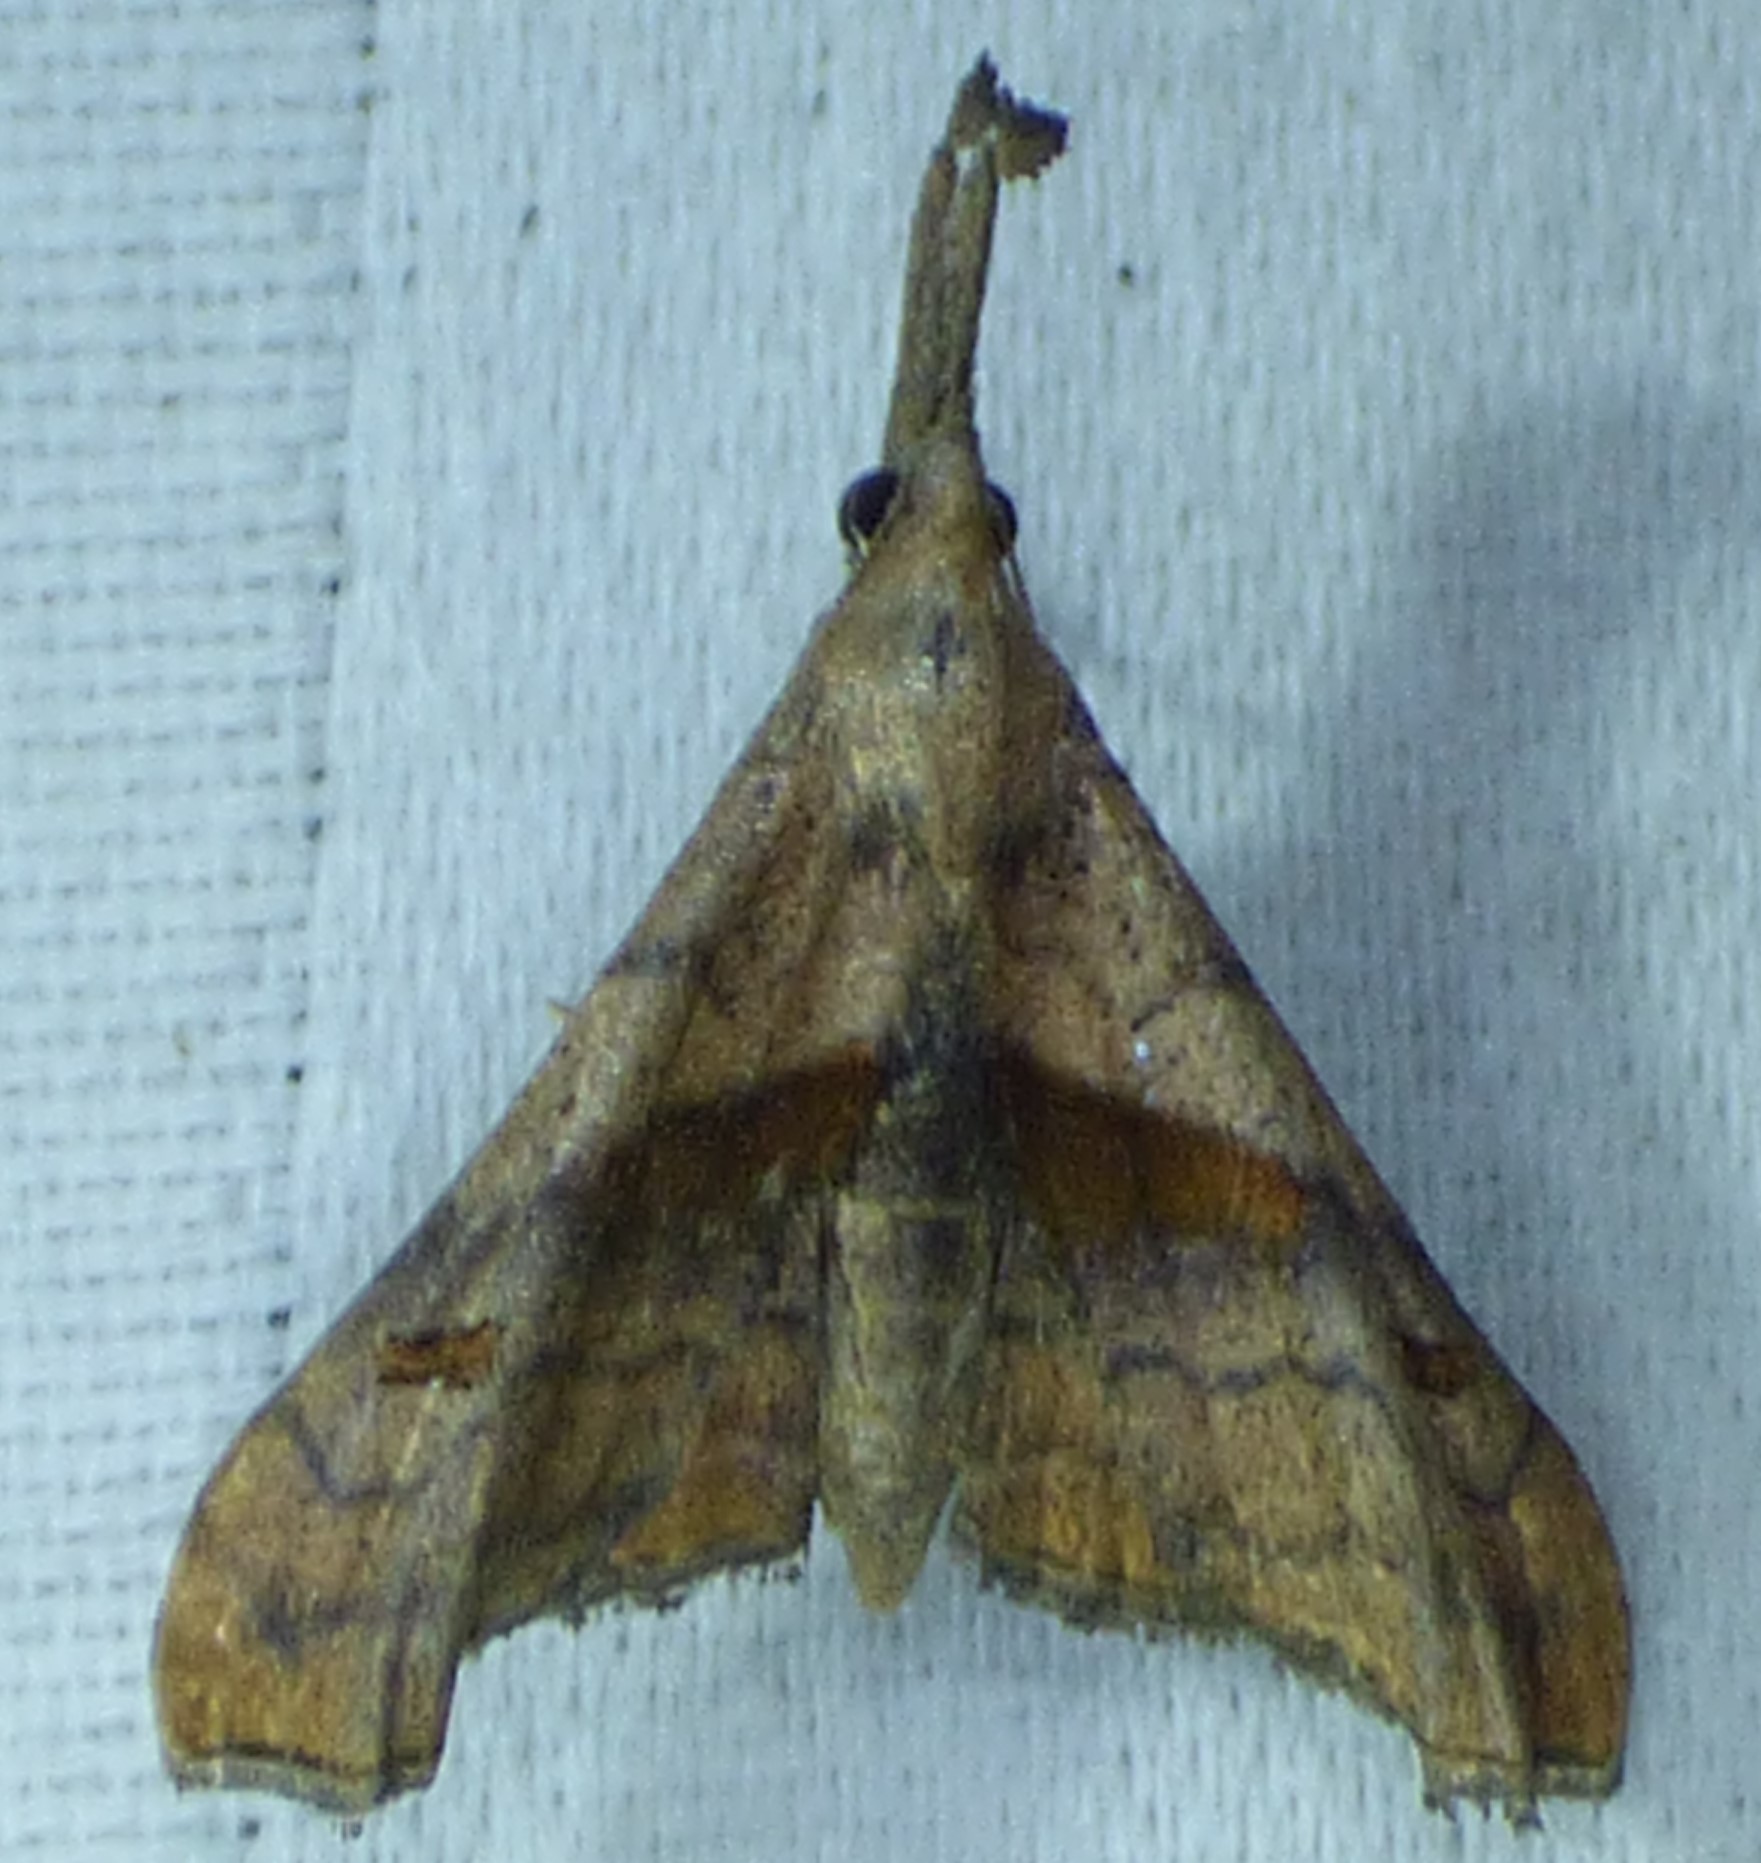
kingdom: Animalia
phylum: Arthropoda
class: Insecta
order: Lepidoptera
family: Erebidae
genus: Palthis
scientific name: Palthis angulalis
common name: Dark-spotted palthis moth
